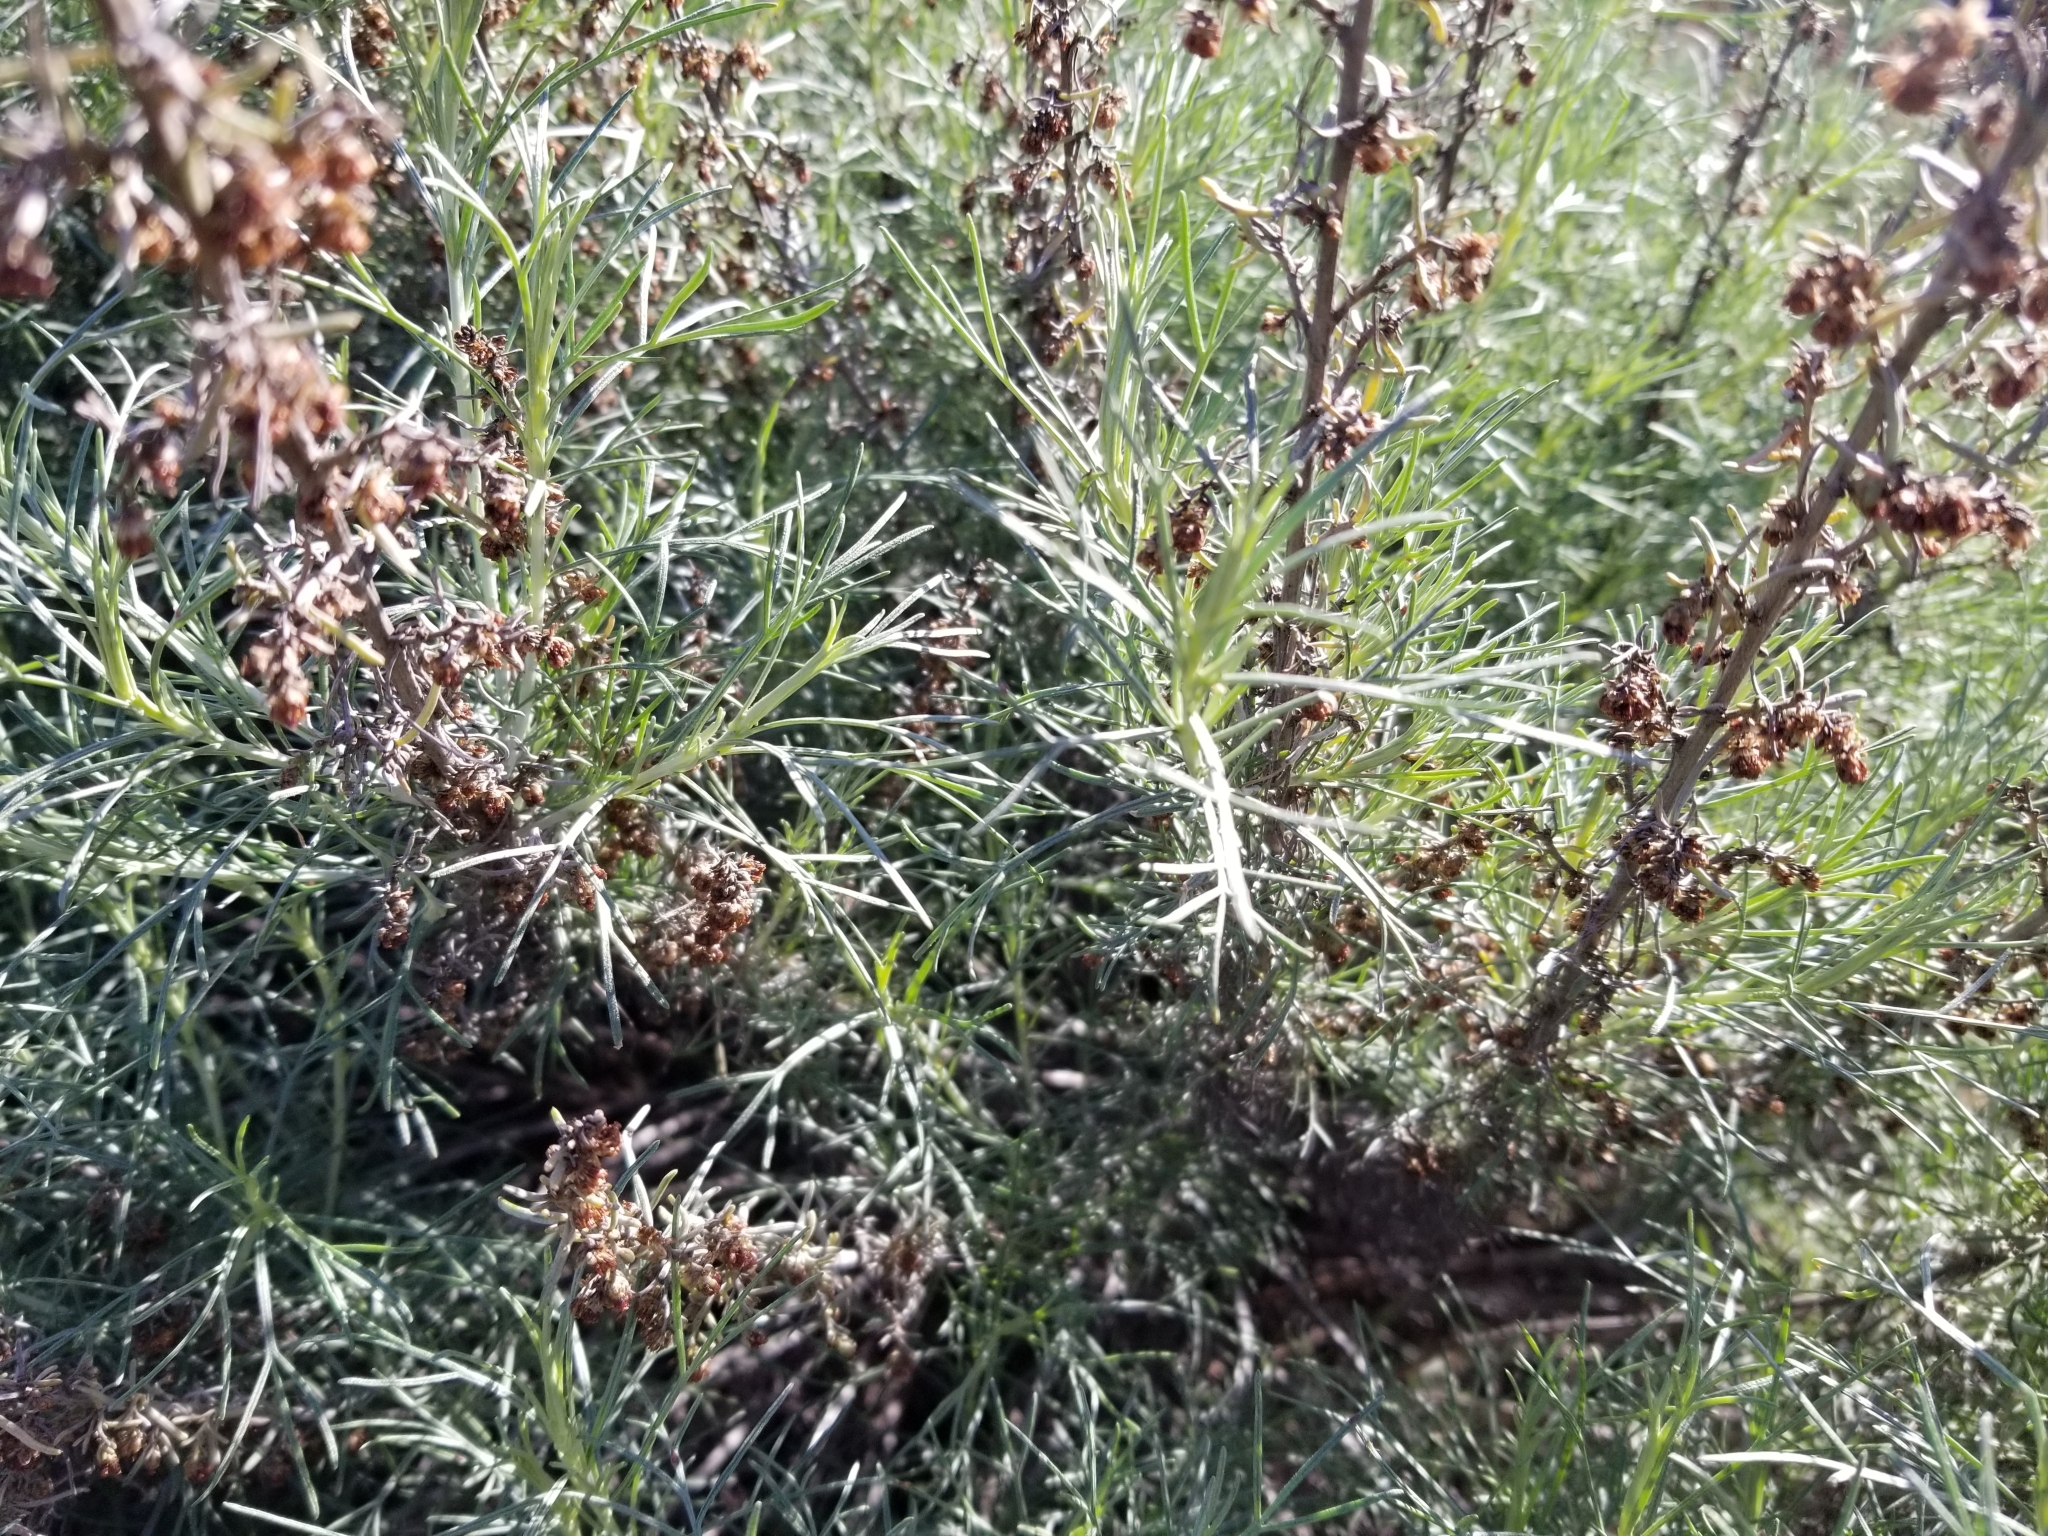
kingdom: Plantae
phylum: Tracheophyta
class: Magnoliopsida
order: Asterales
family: Asteraceae
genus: Artemisia
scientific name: Artemisia californica
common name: California sagebrush
